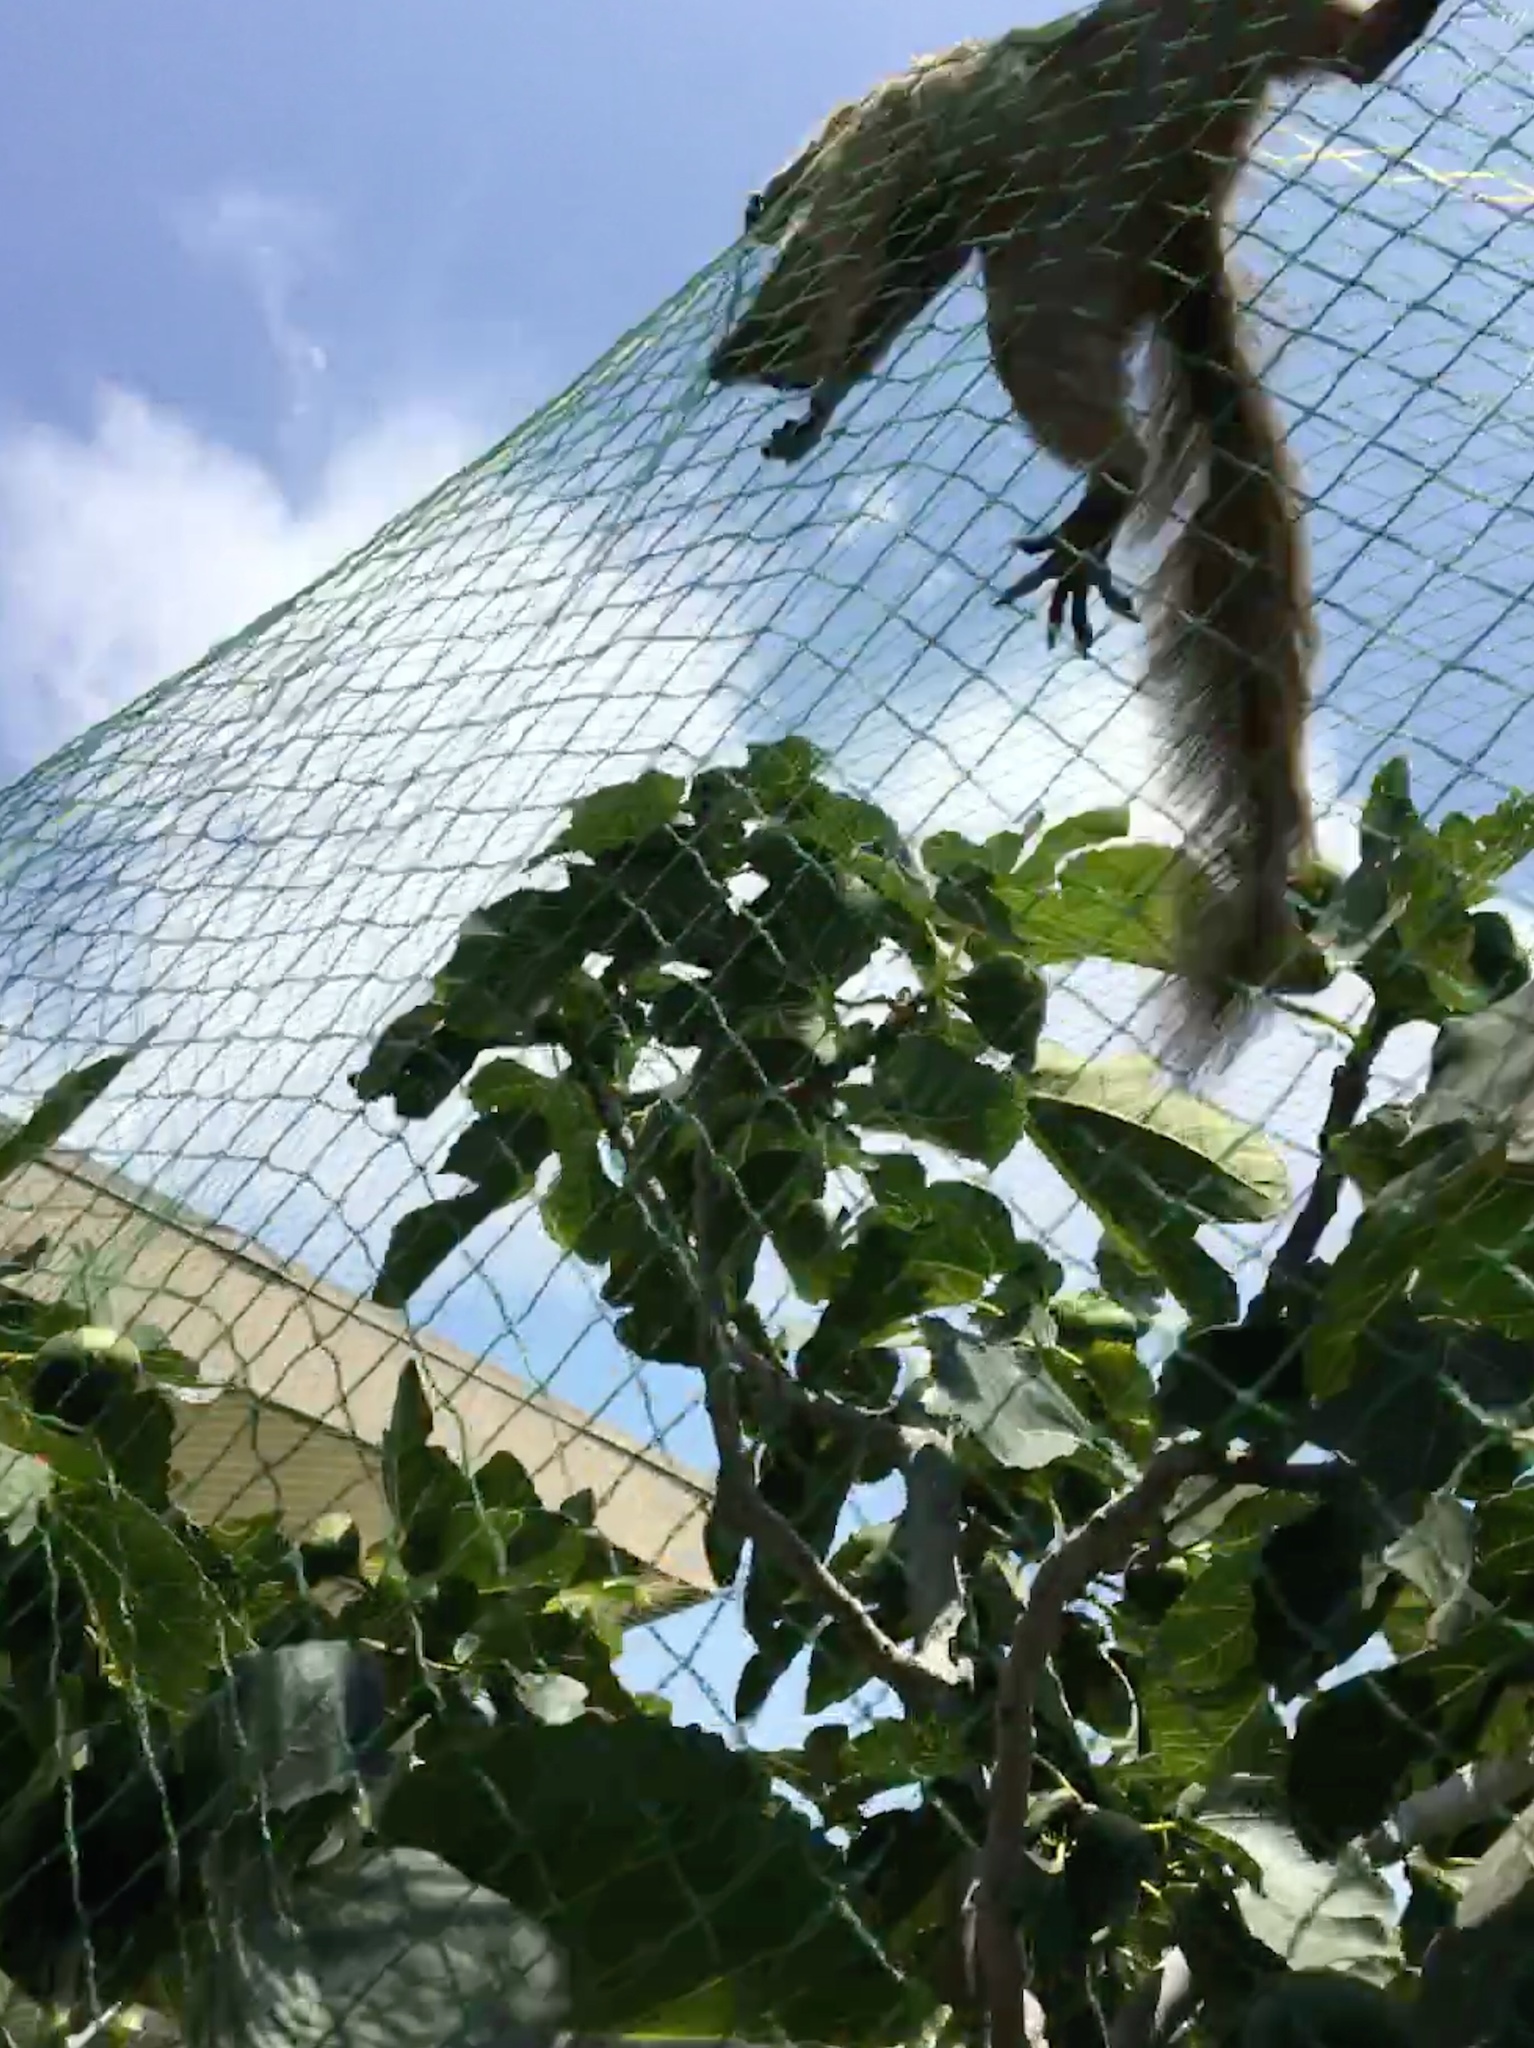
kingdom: Animalia
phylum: Chordata
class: Mammalia
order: Rodentia
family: Sciuridae
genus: Sciurus
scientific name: Sciurus niger
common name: Fox squirrel
